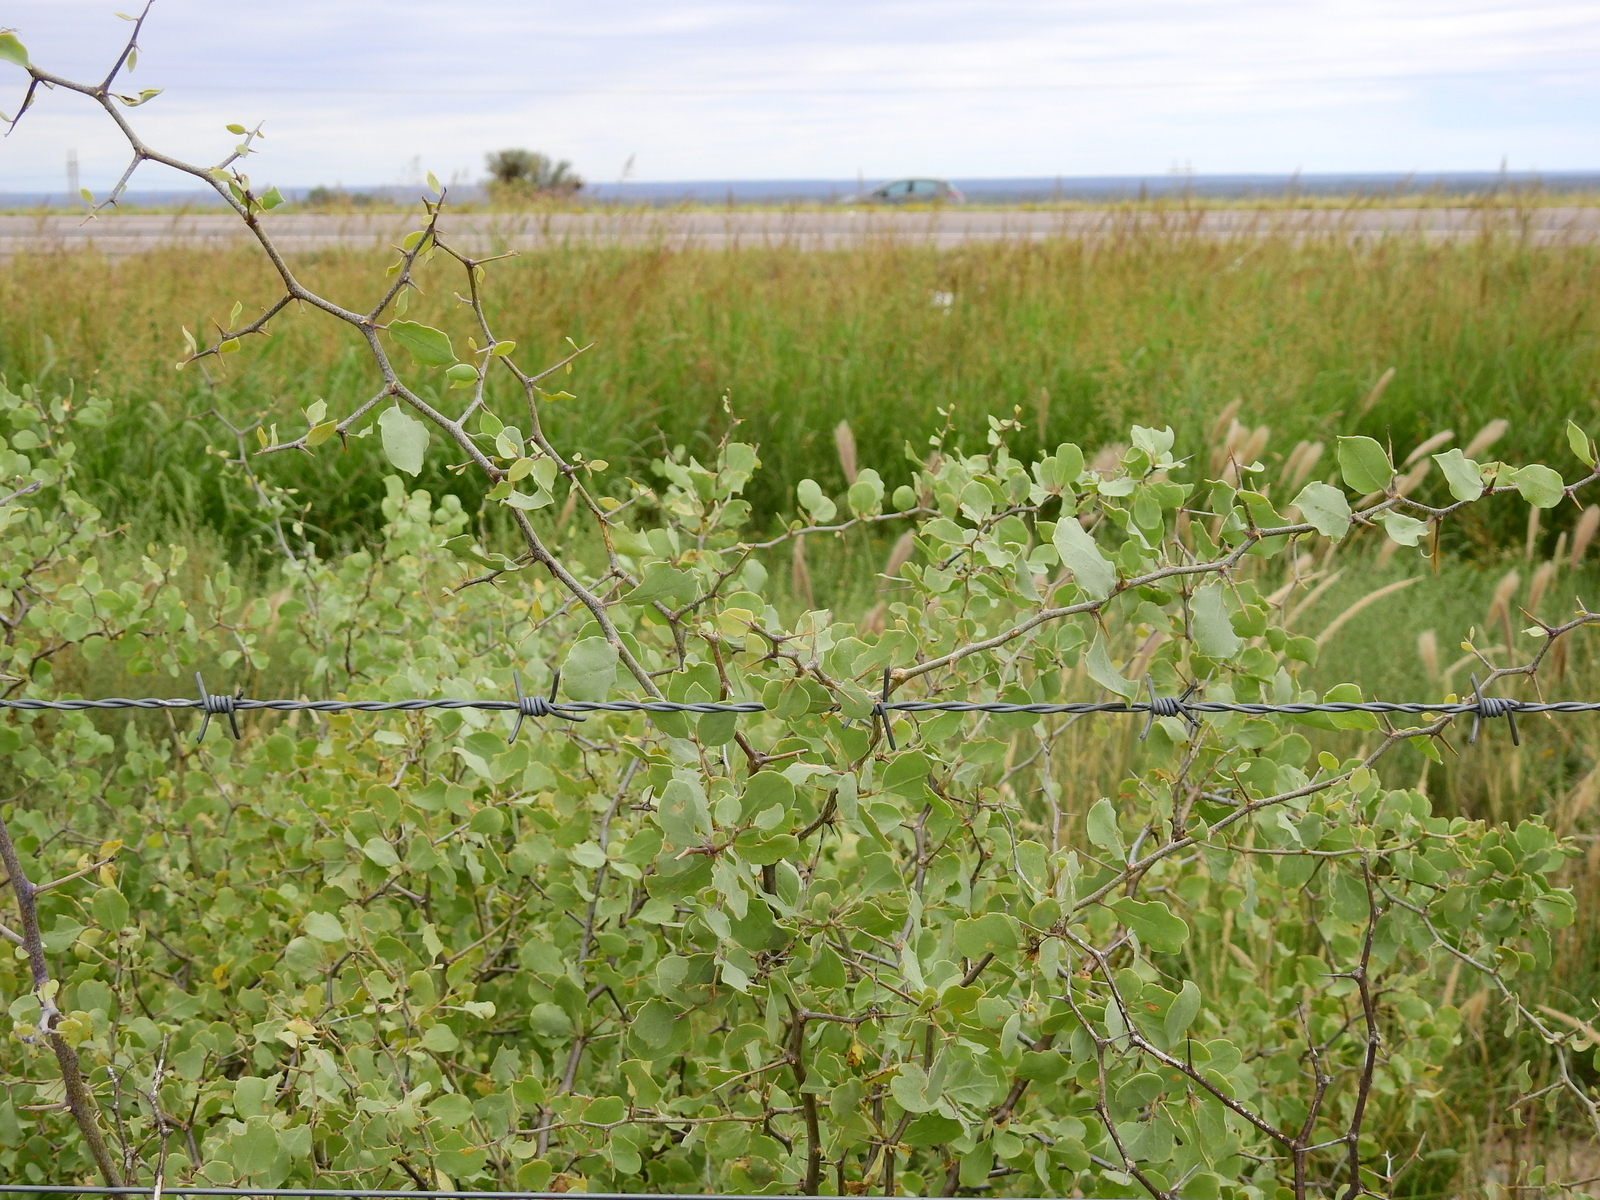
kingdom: Plantae
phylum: Tracheophyta
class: Magnoliopsida
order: Solanales
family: Solanaceae
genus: Lycium
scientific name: Lycium boerhaaviifolium
